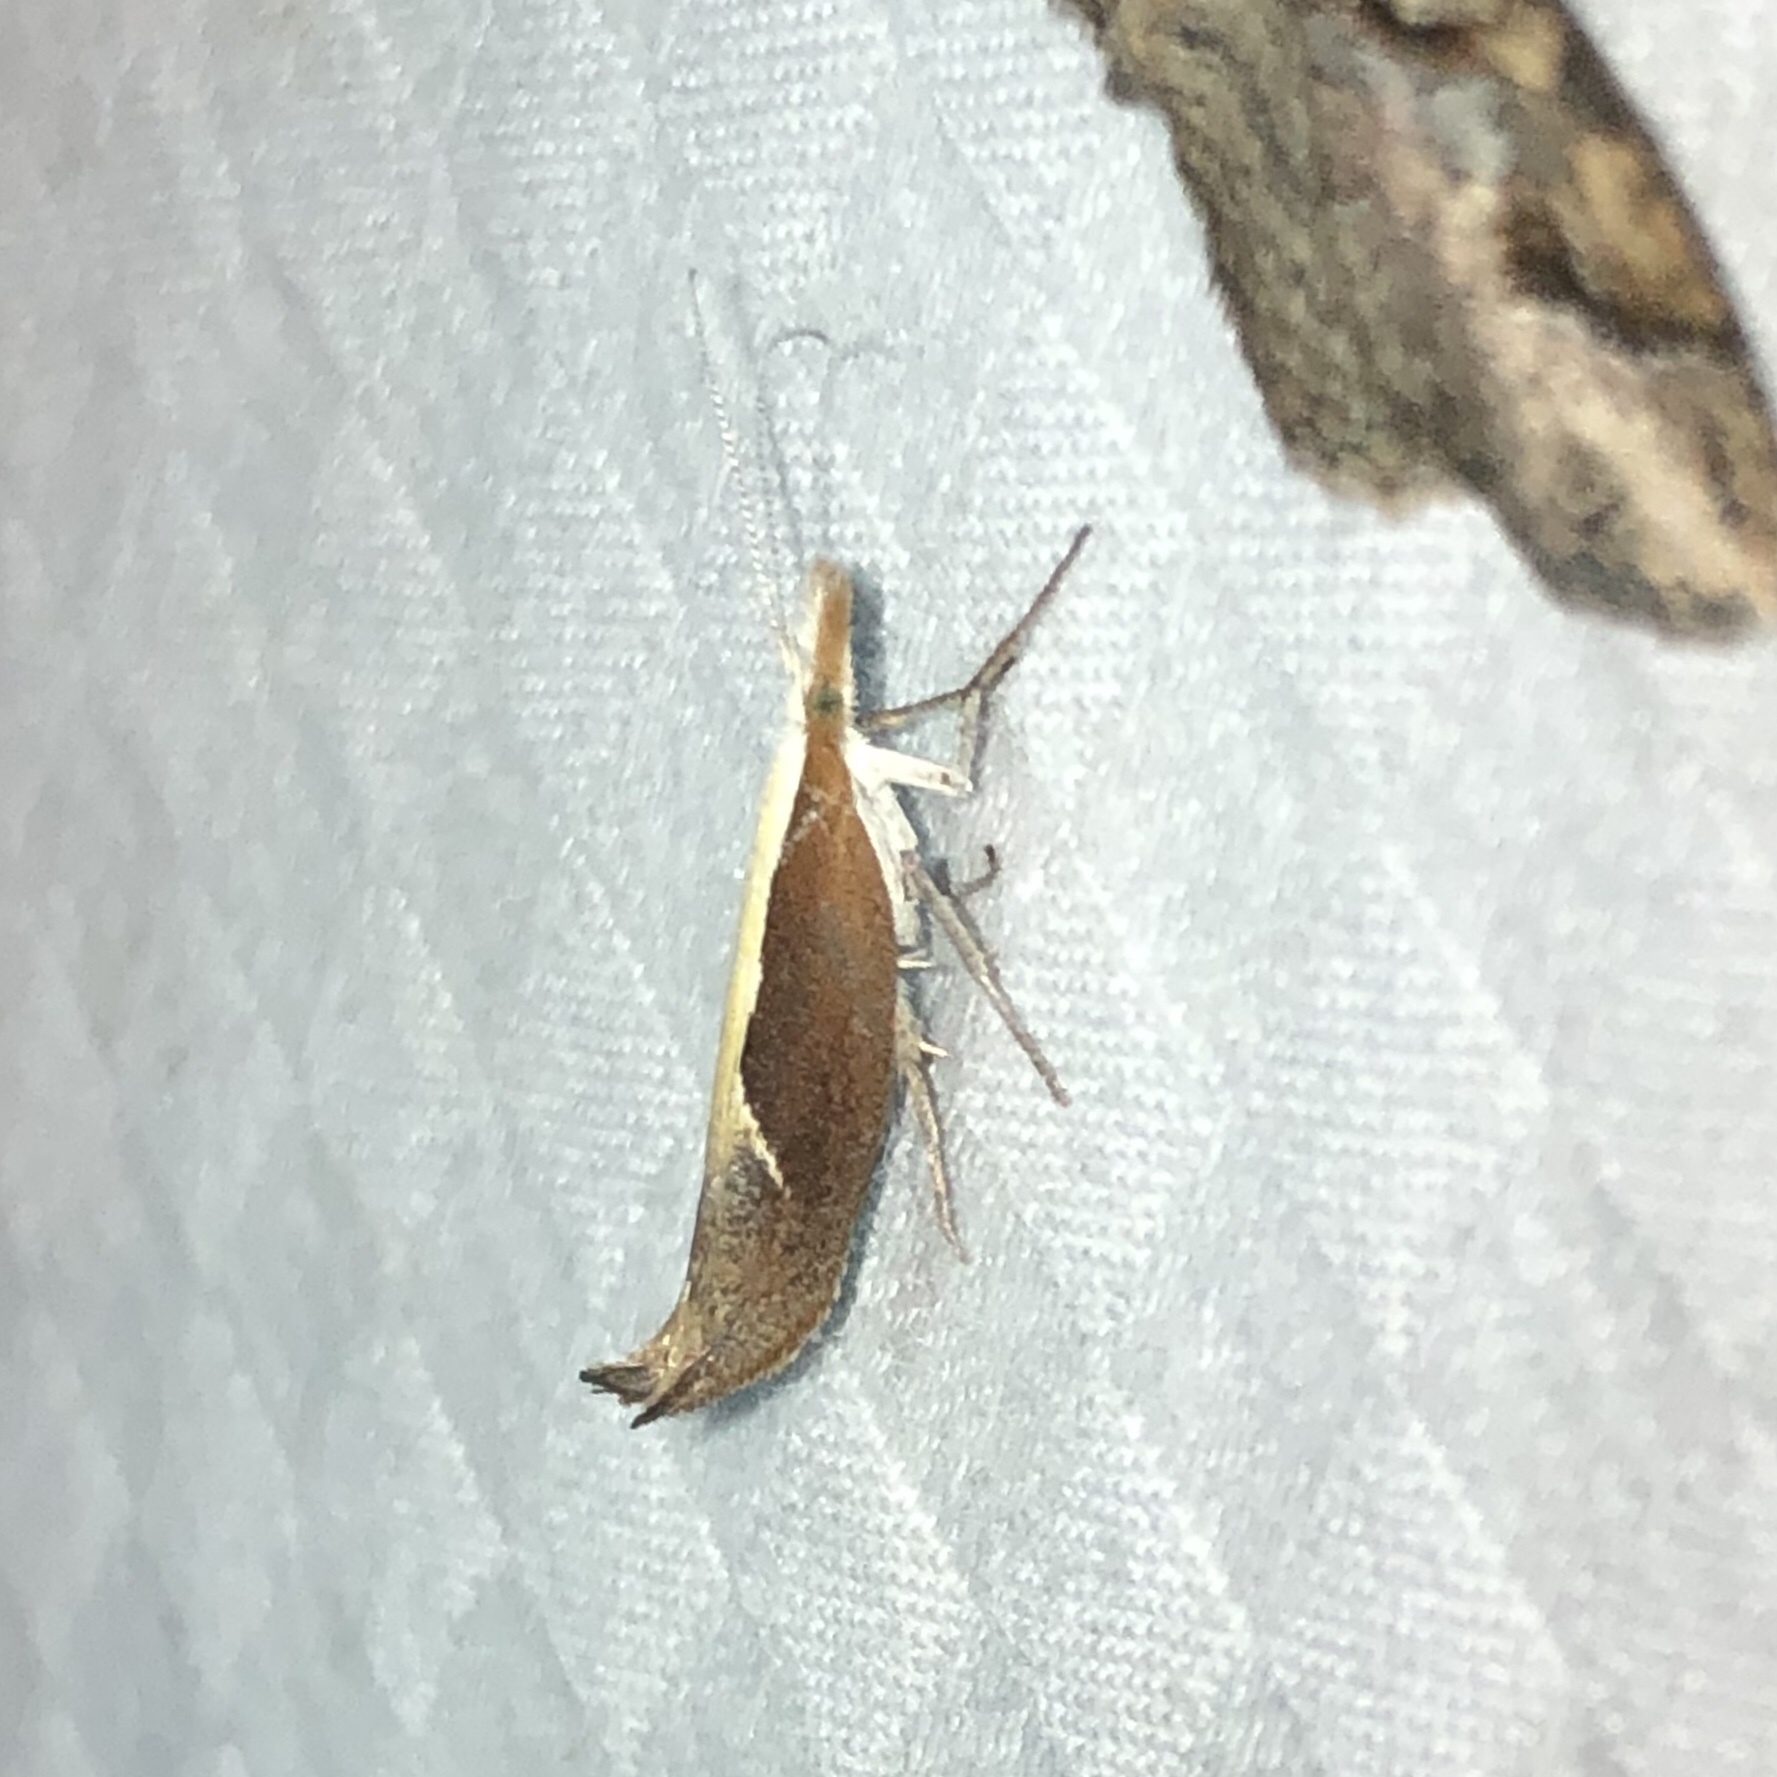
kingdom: Animalia
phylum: Arthropoda
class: Insecta
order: Lepidoptera
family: Ypsolophidae
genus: Ypsolopha
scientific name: Ypsolopha dentella
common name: Honeysuckle moth
